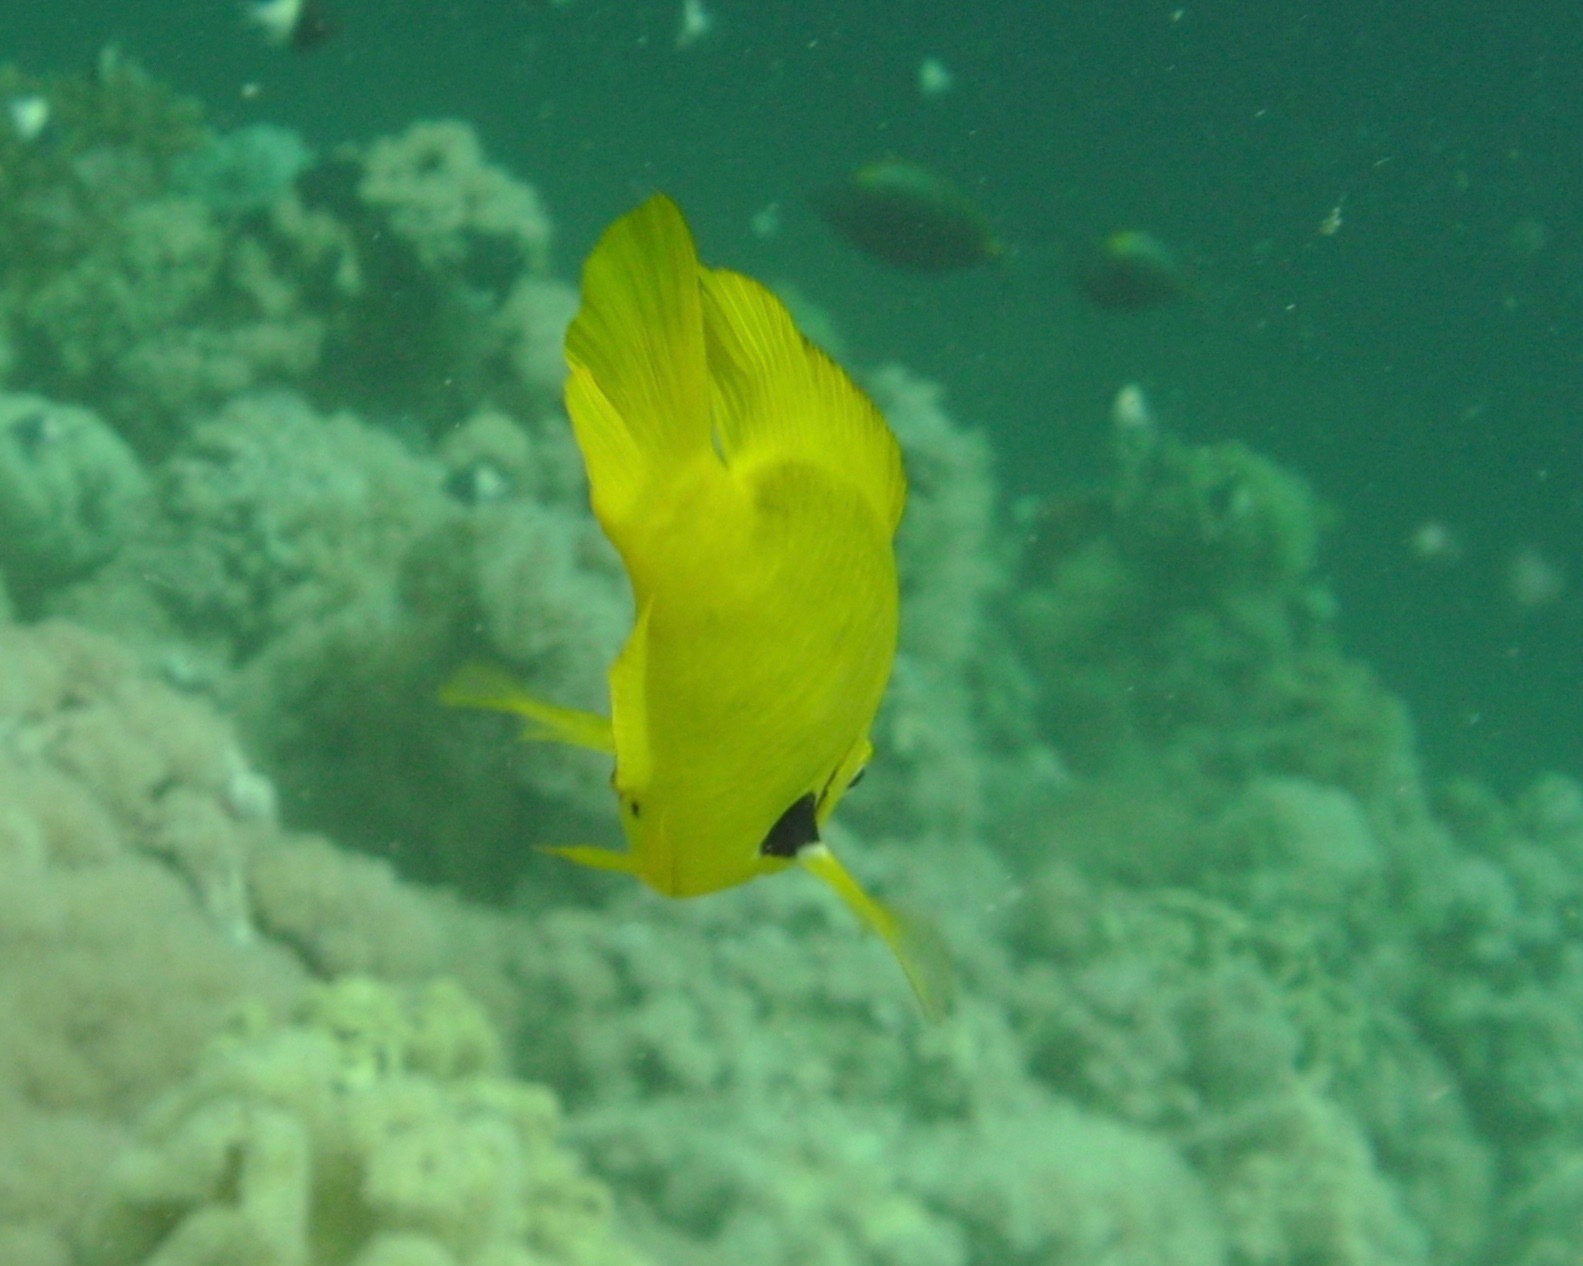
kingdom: Animalia
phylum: Chordata
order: Perciformes
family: Pomacentridae
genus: Pomacentrus
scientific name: Pomacentrus sulfureus
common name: Sulfur damsel
